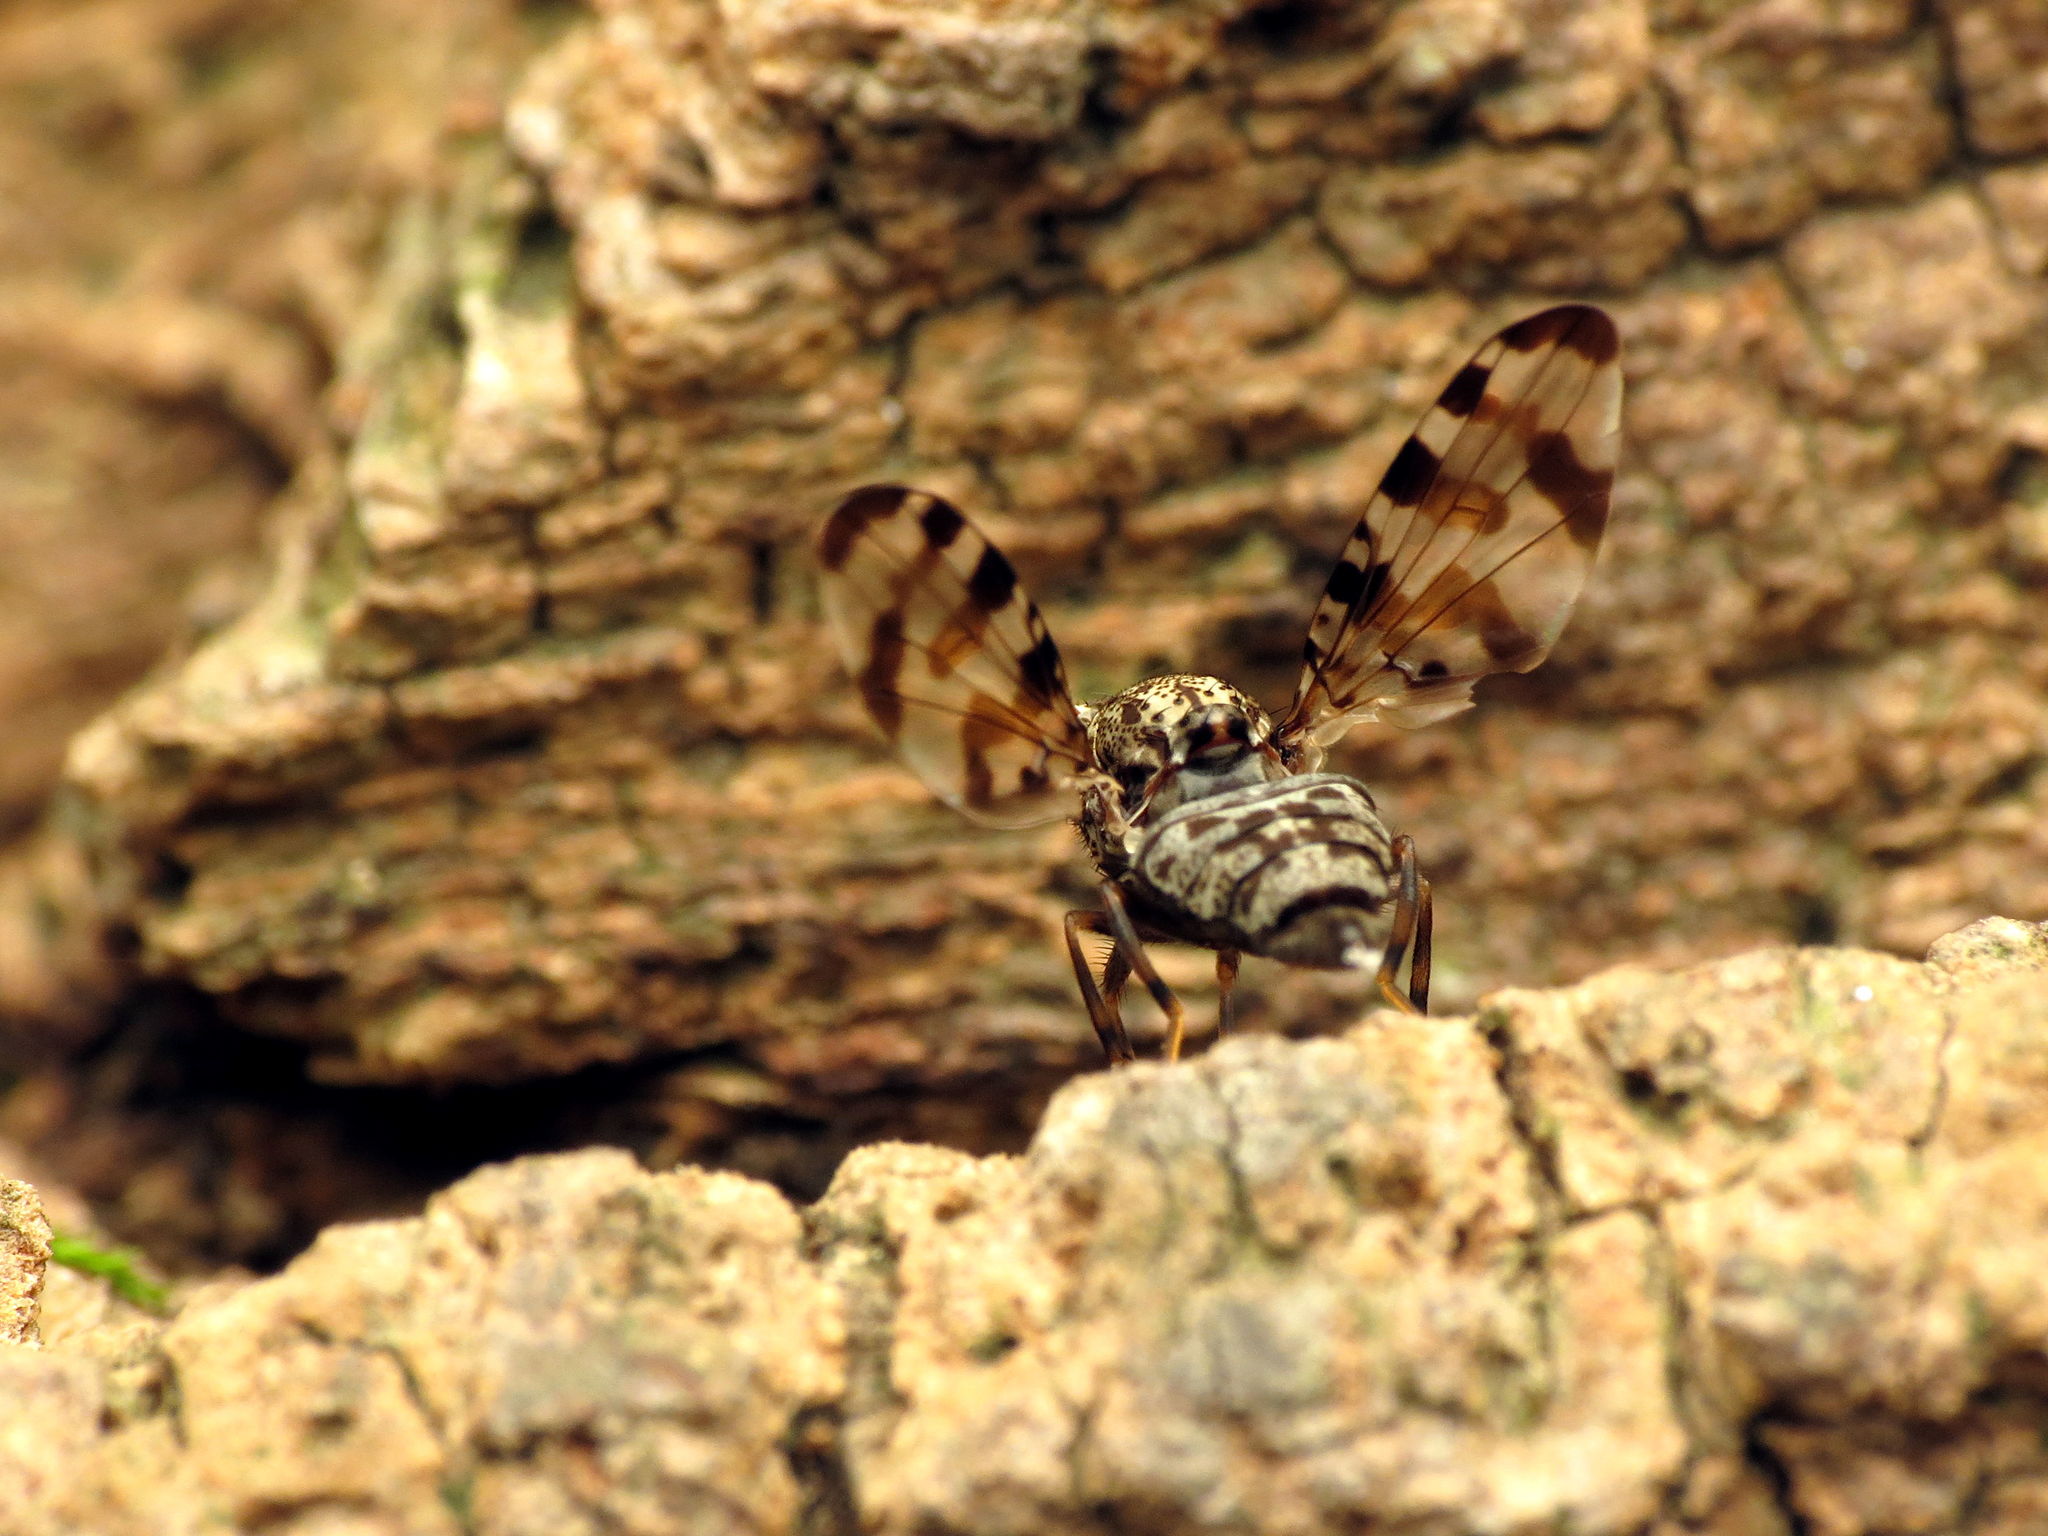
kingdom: Animalia
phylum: Arthropoda
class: Insecta
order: Diptera
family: Ulidiidae
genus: Pseudotephritis
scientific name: Pseudotephritis approximata
